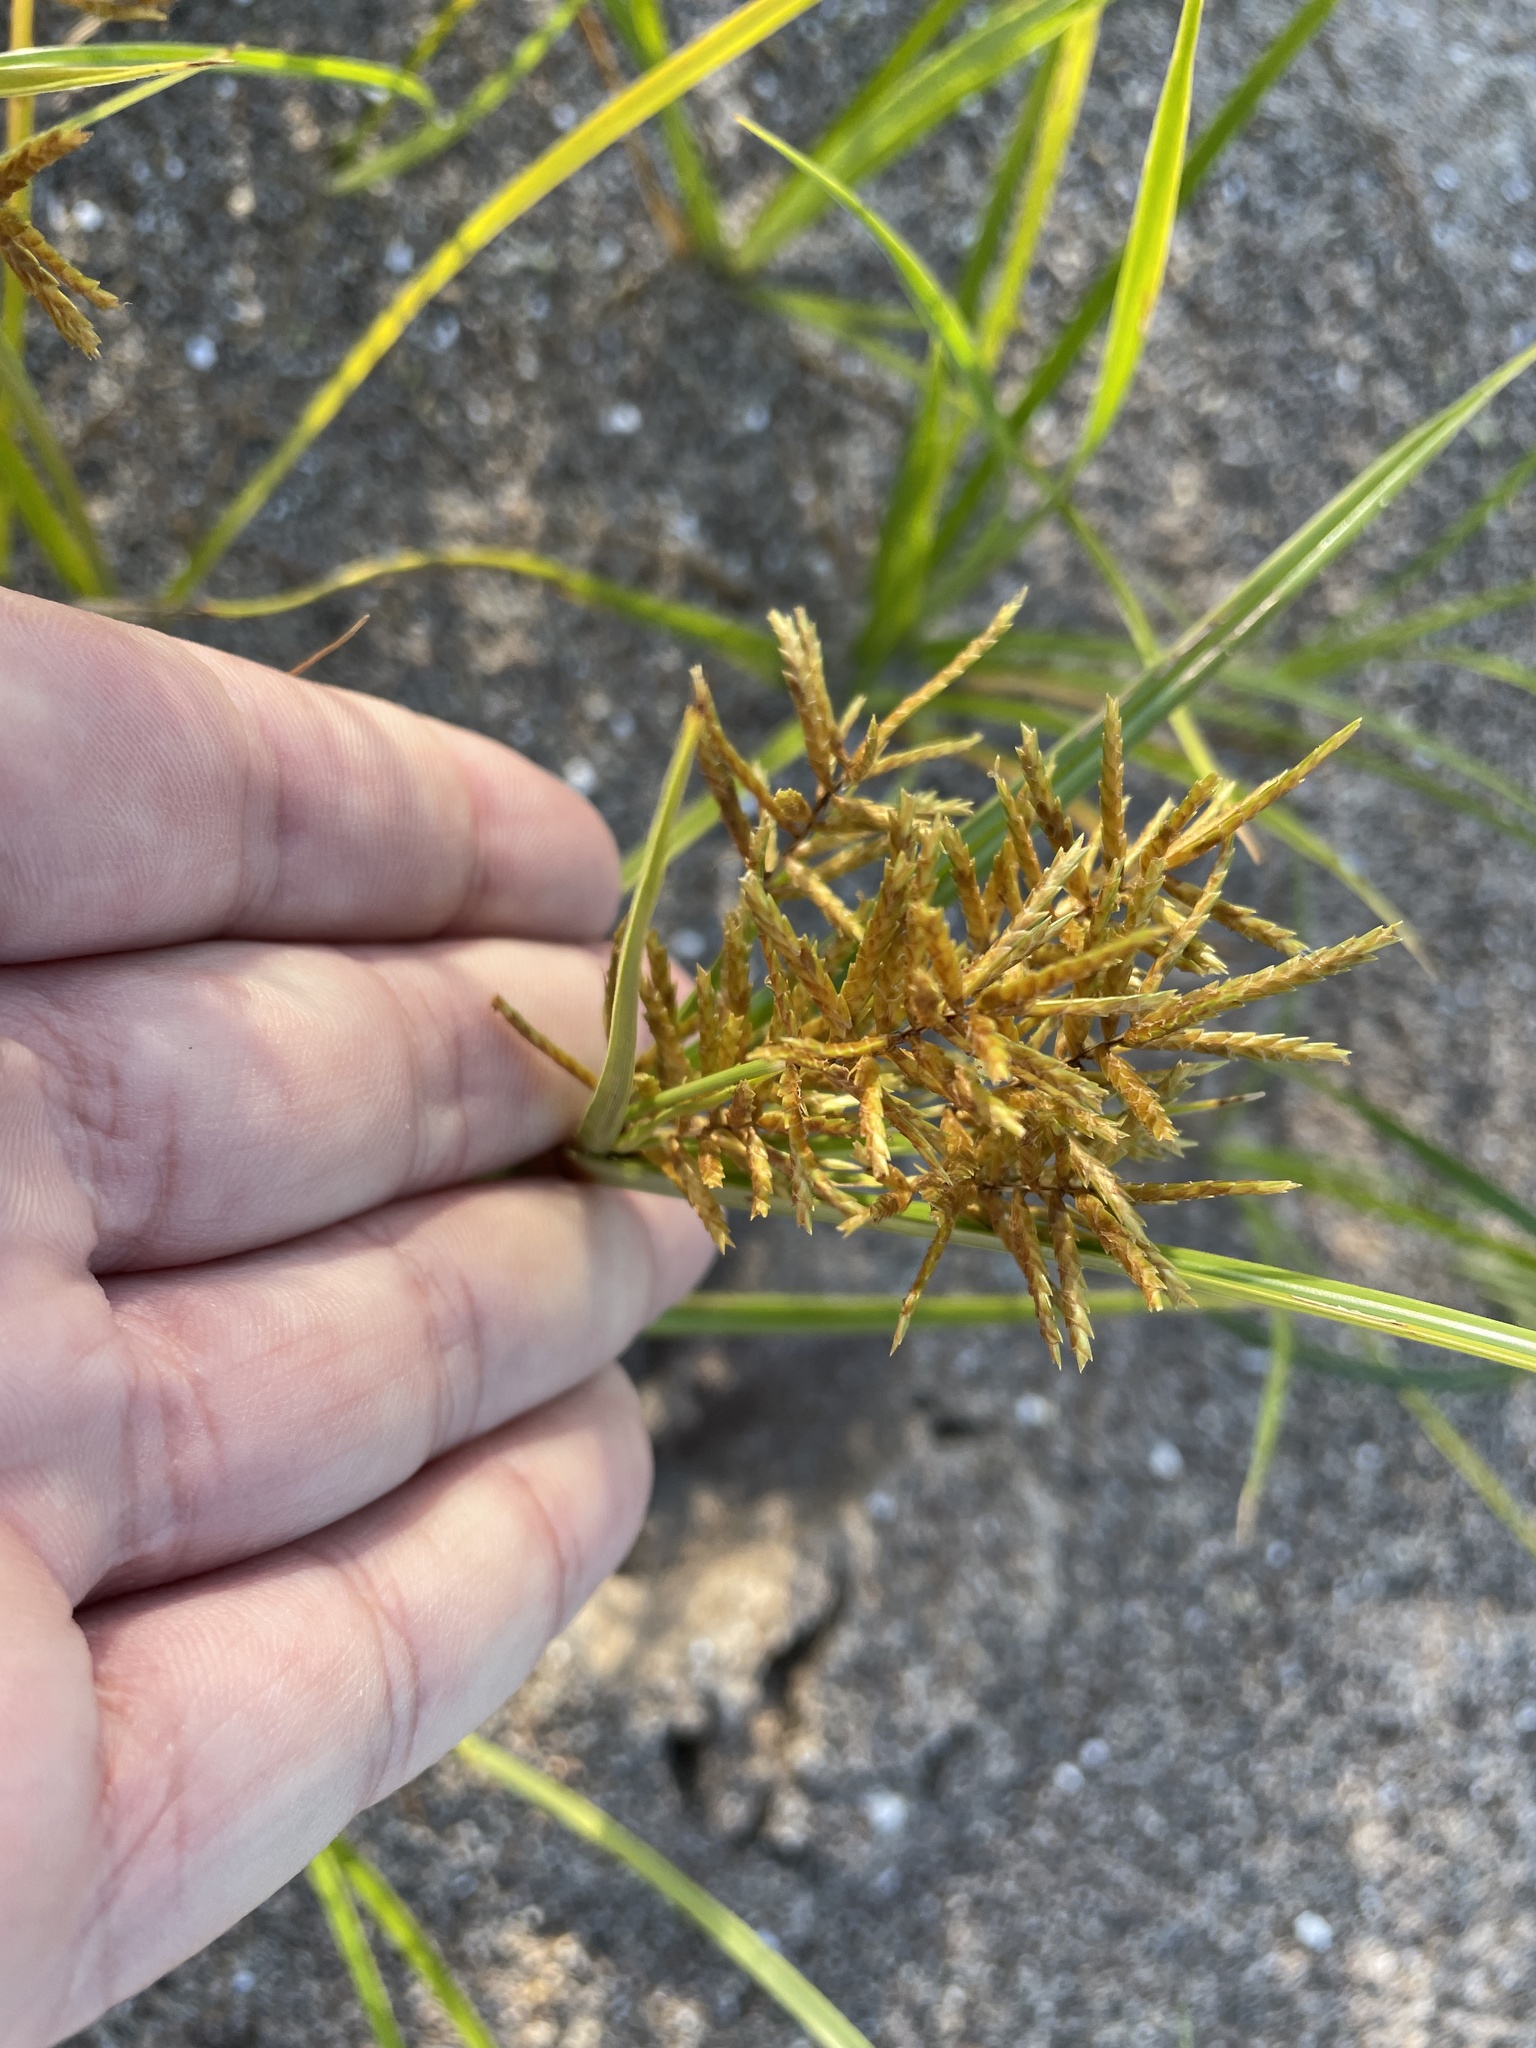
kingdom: Plantae
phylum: Tracheophyta
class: Liliopsida
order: Poales
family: Cyperaceae
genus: Cyperus
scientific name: Cyperus esculentus
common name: Yellow nutsedge
